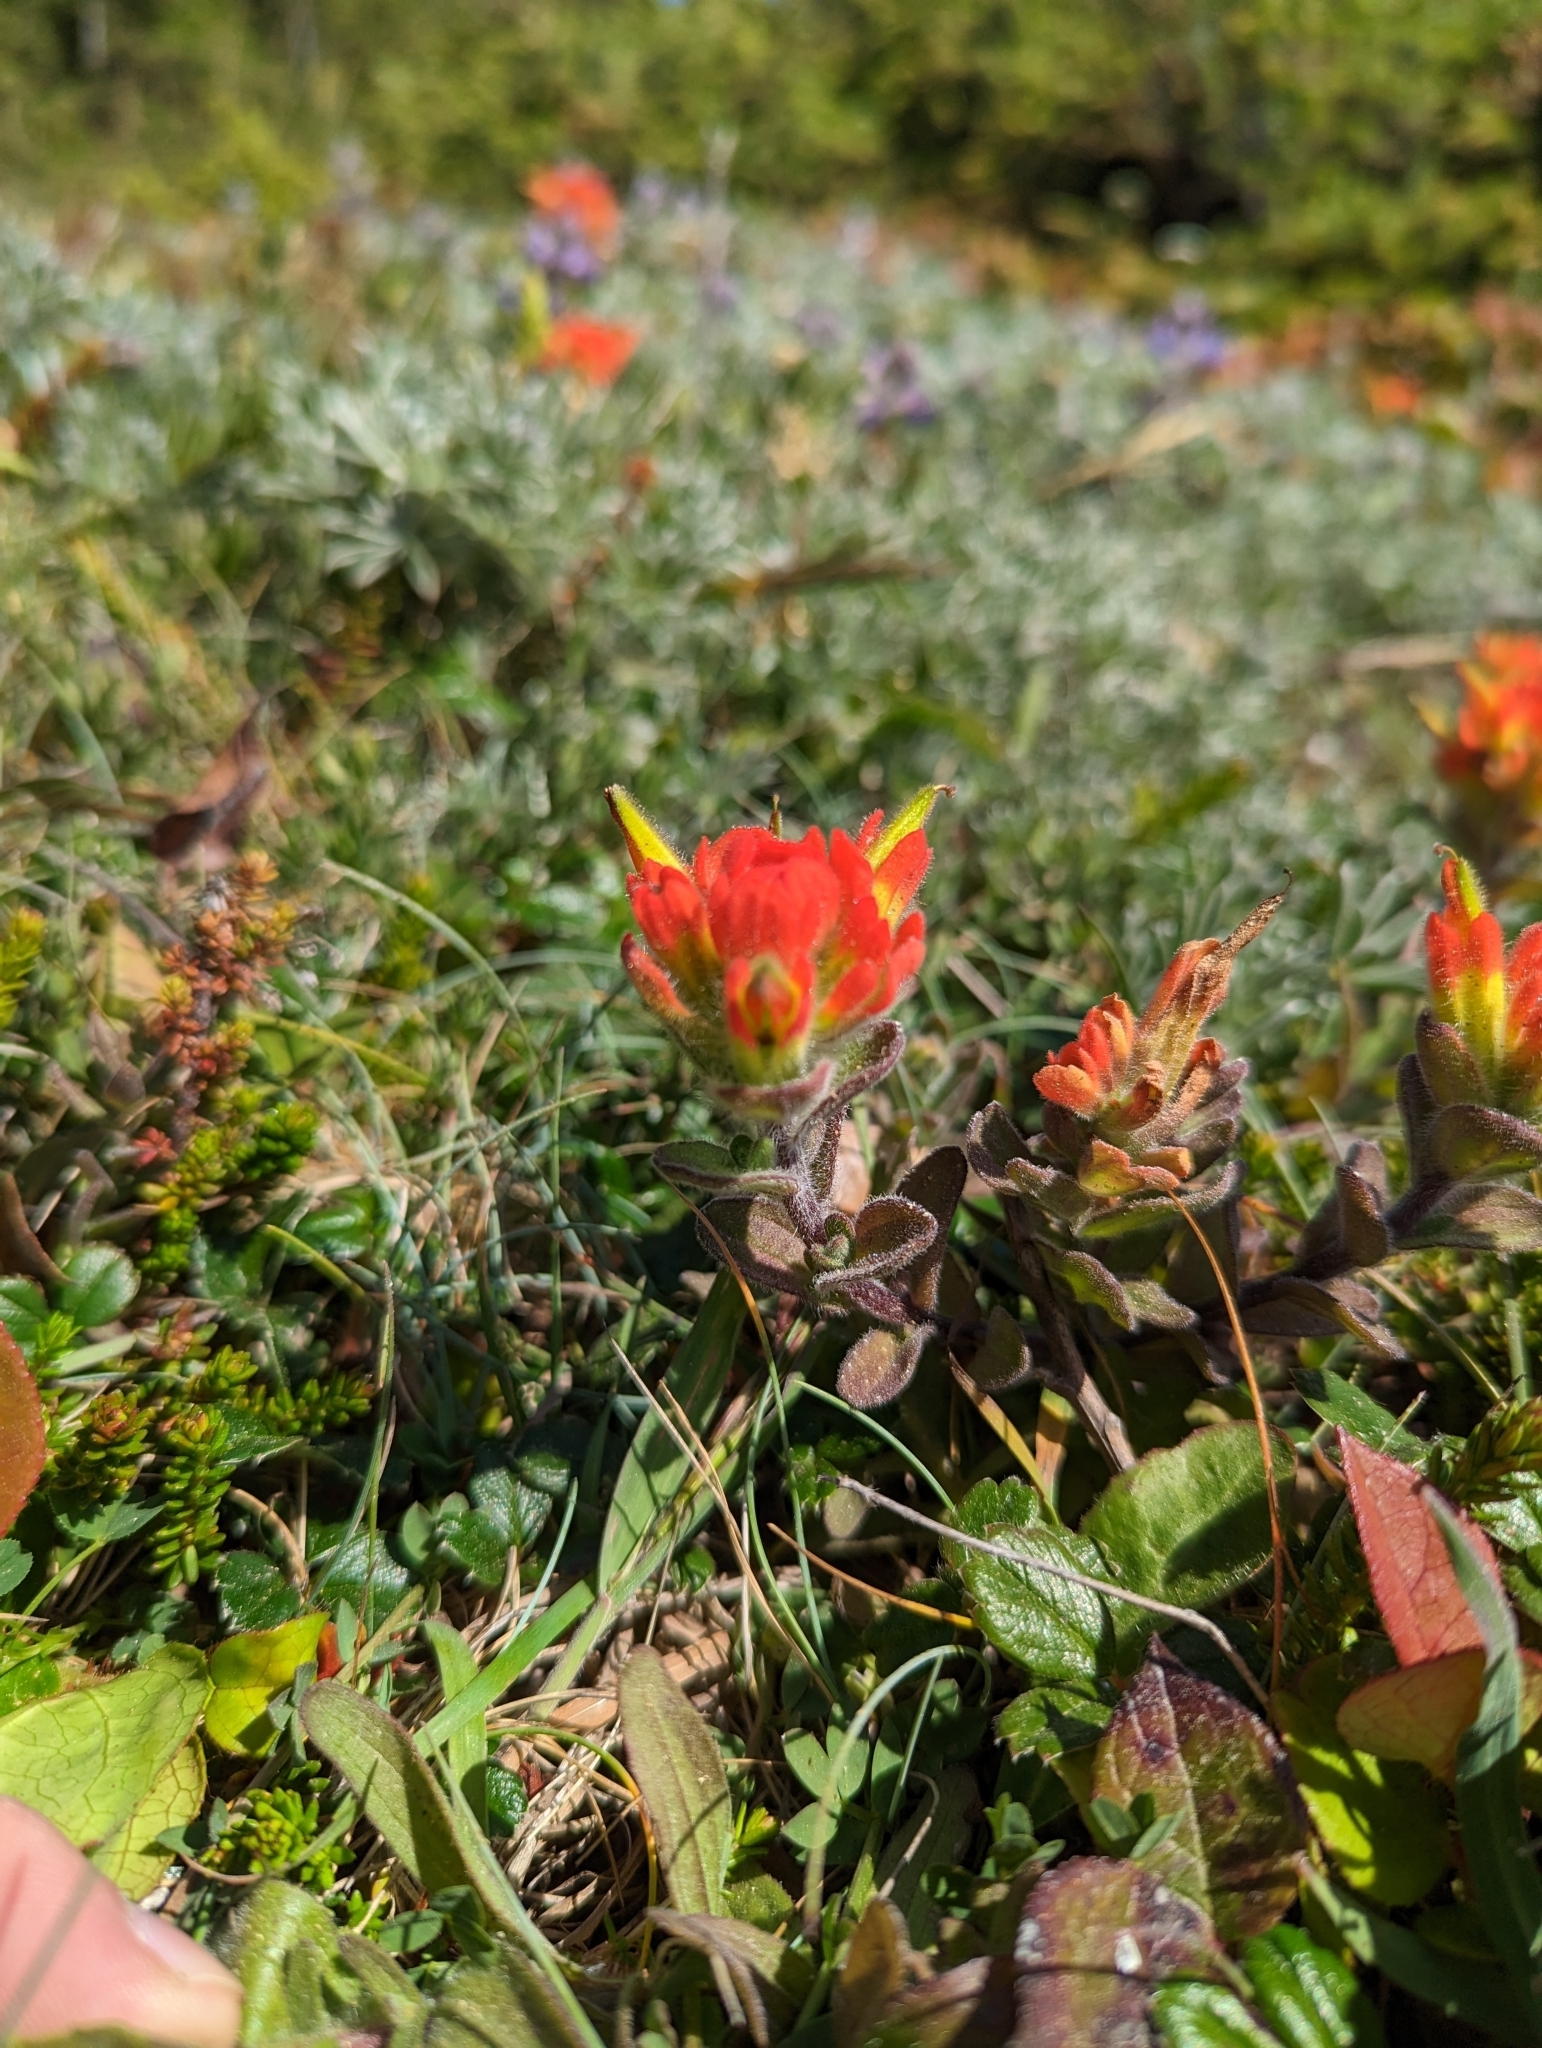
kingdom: Plantae
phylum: Tracheophyta
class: Magnoliopsida
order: Lamiales
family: Orobanchaceae
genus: Castilleja
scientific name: Castilleja mendocinensis
